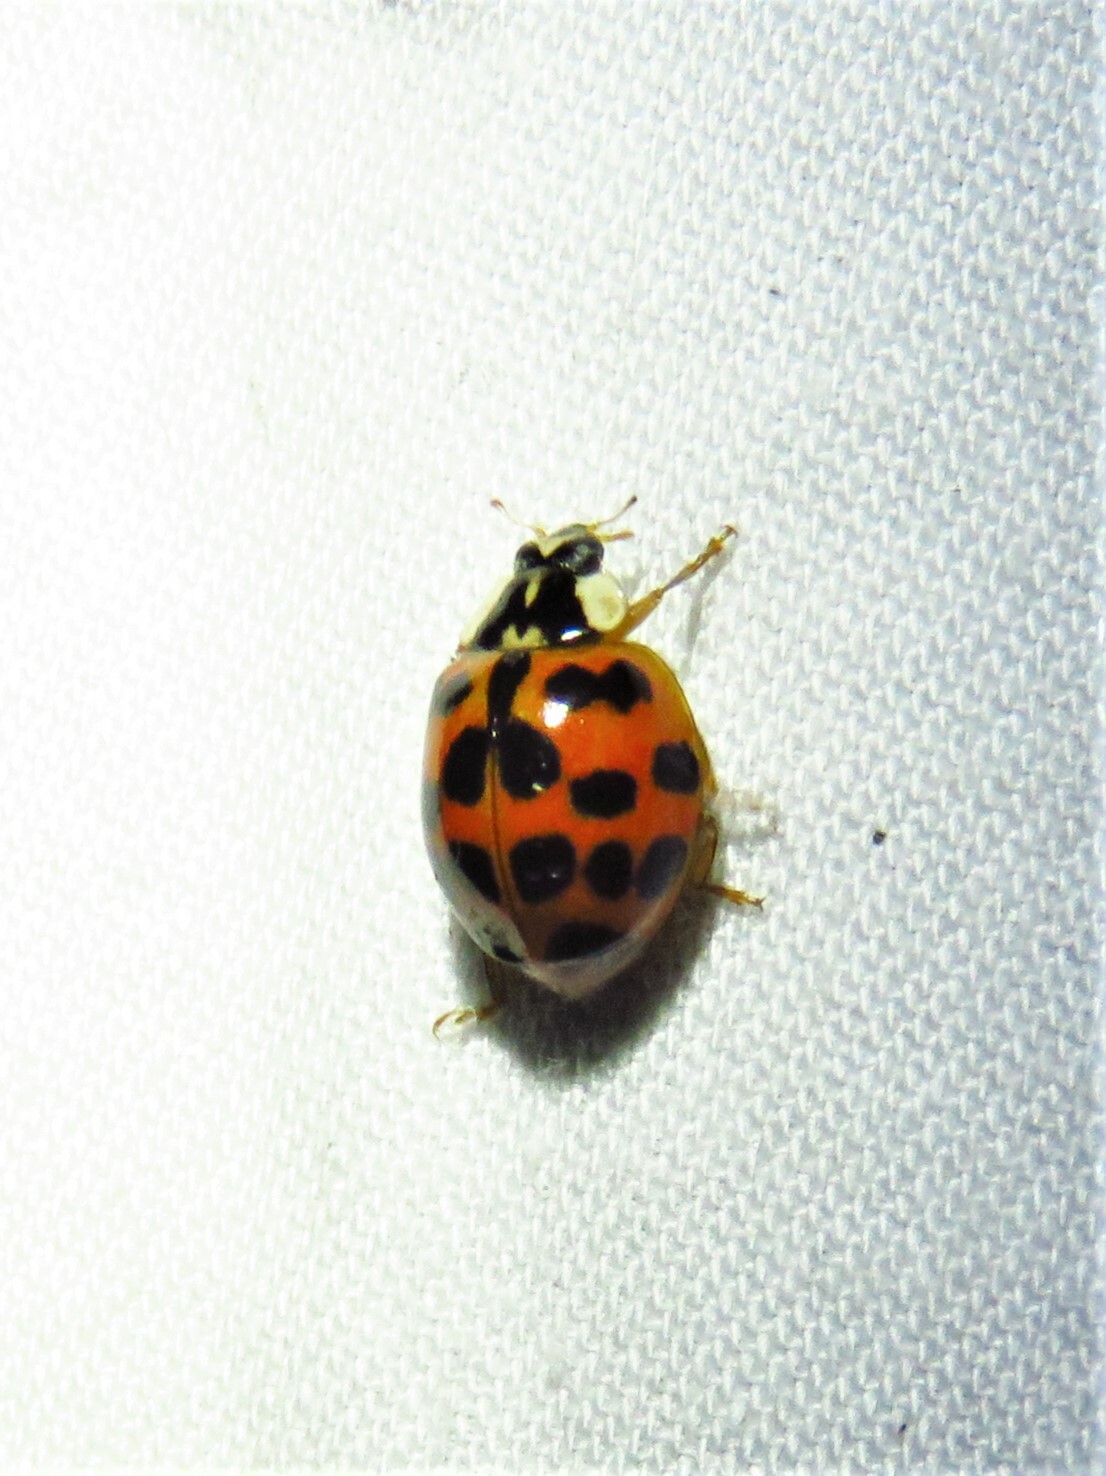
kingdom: Animalia
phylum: Arthropoda
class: Insecta
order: Coleoptera
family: Coccinellidae
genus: Harmonia
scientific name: Harmonia axyridis
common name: Harlequin ladybird
